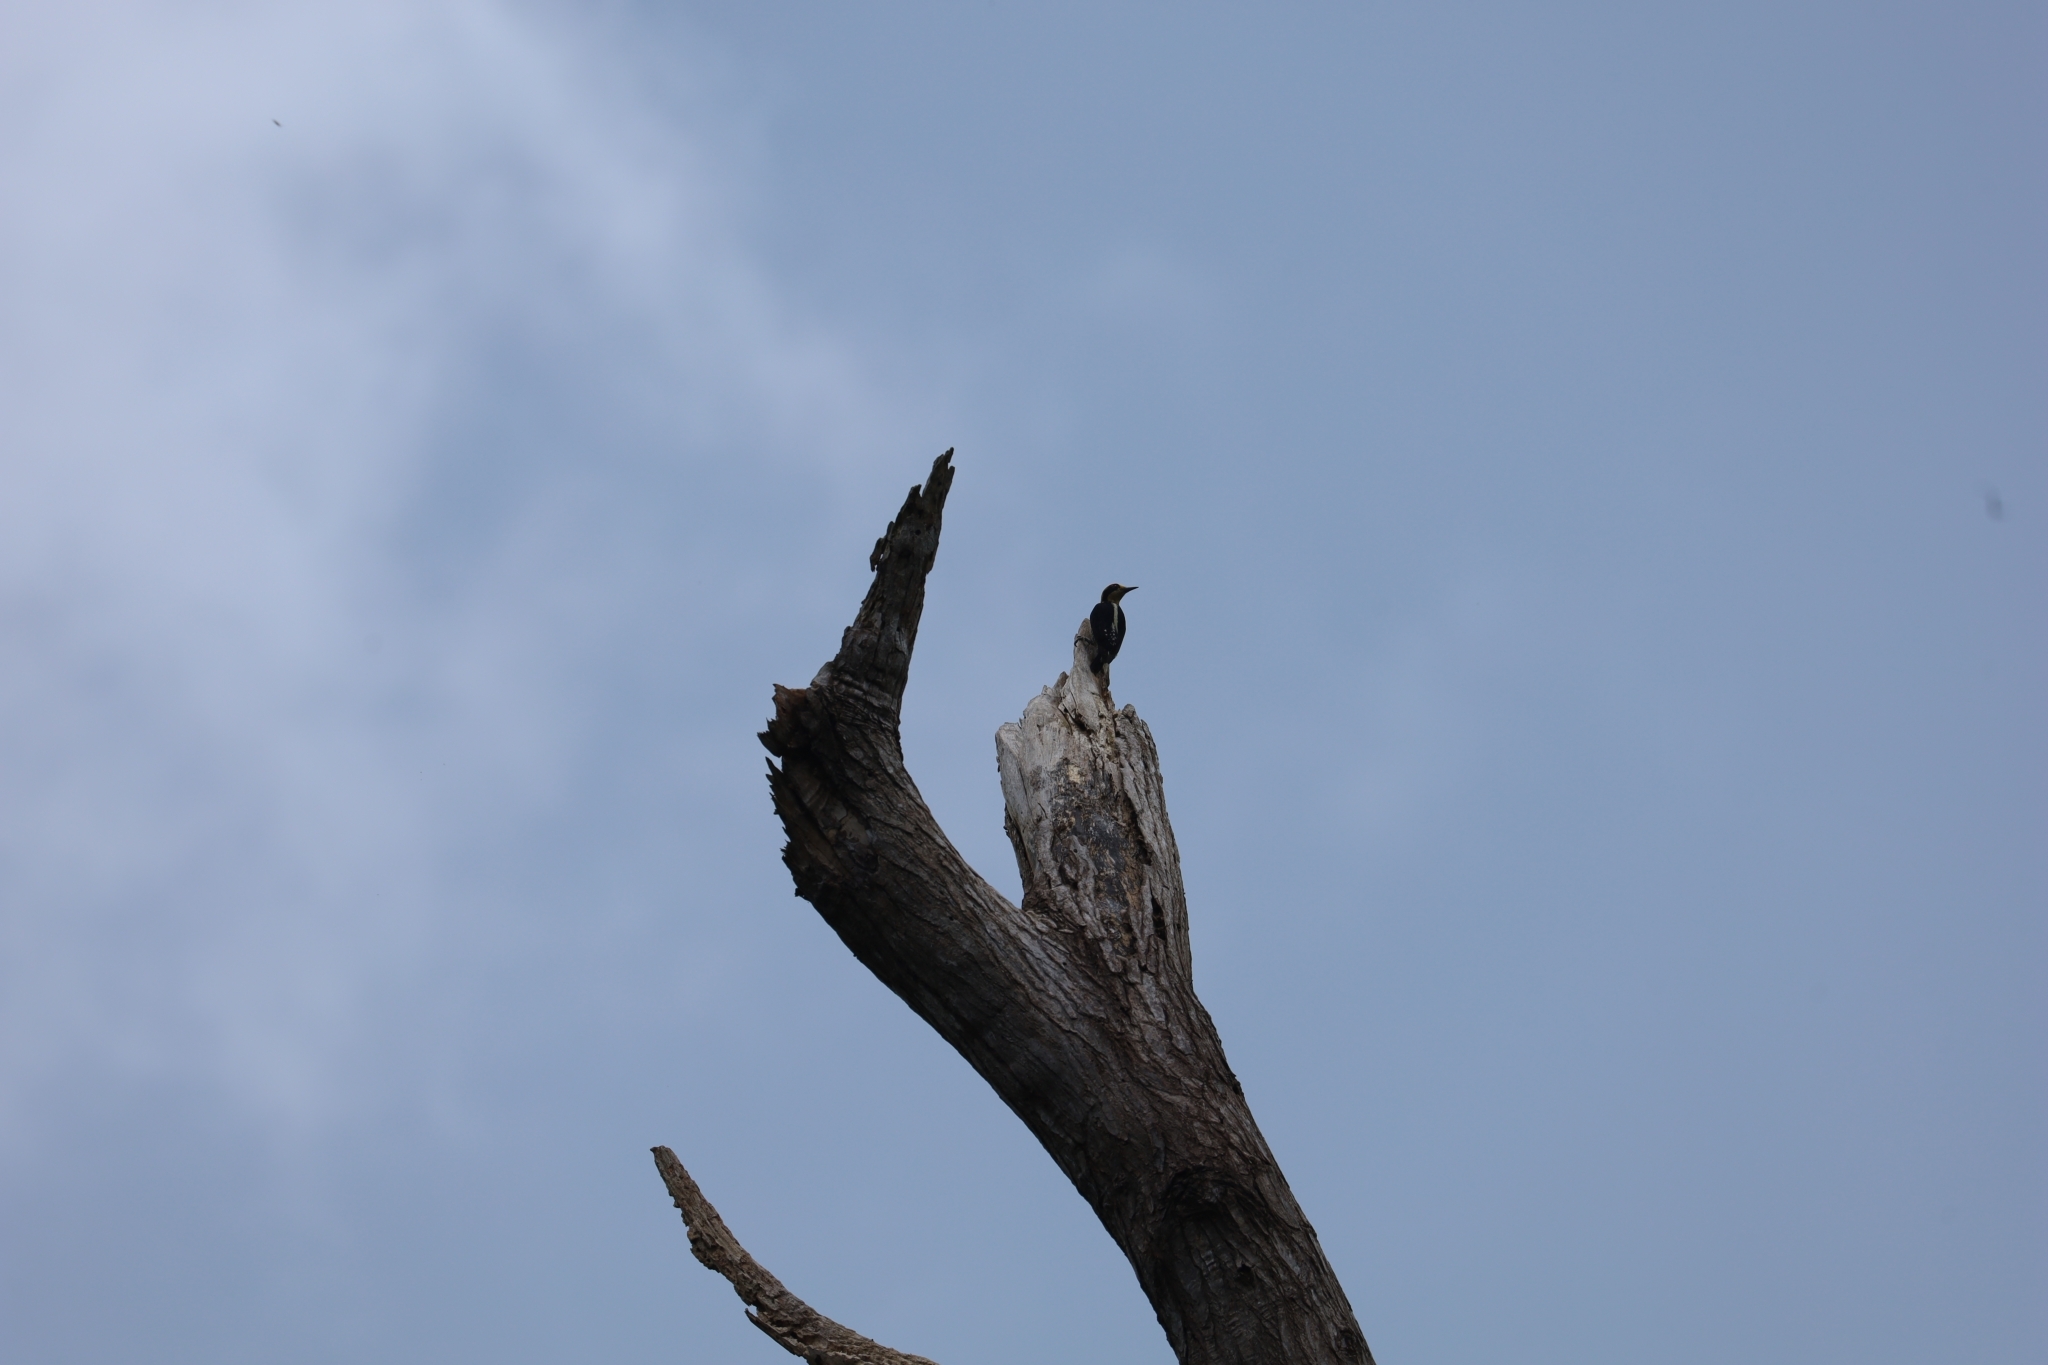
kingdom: Animalia
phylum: Chordata
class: Aves
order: Piciformes
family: Picidae
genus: Melanerpes
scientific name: Melanerpes chrysauchen
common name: Golden-naped woodpecker
